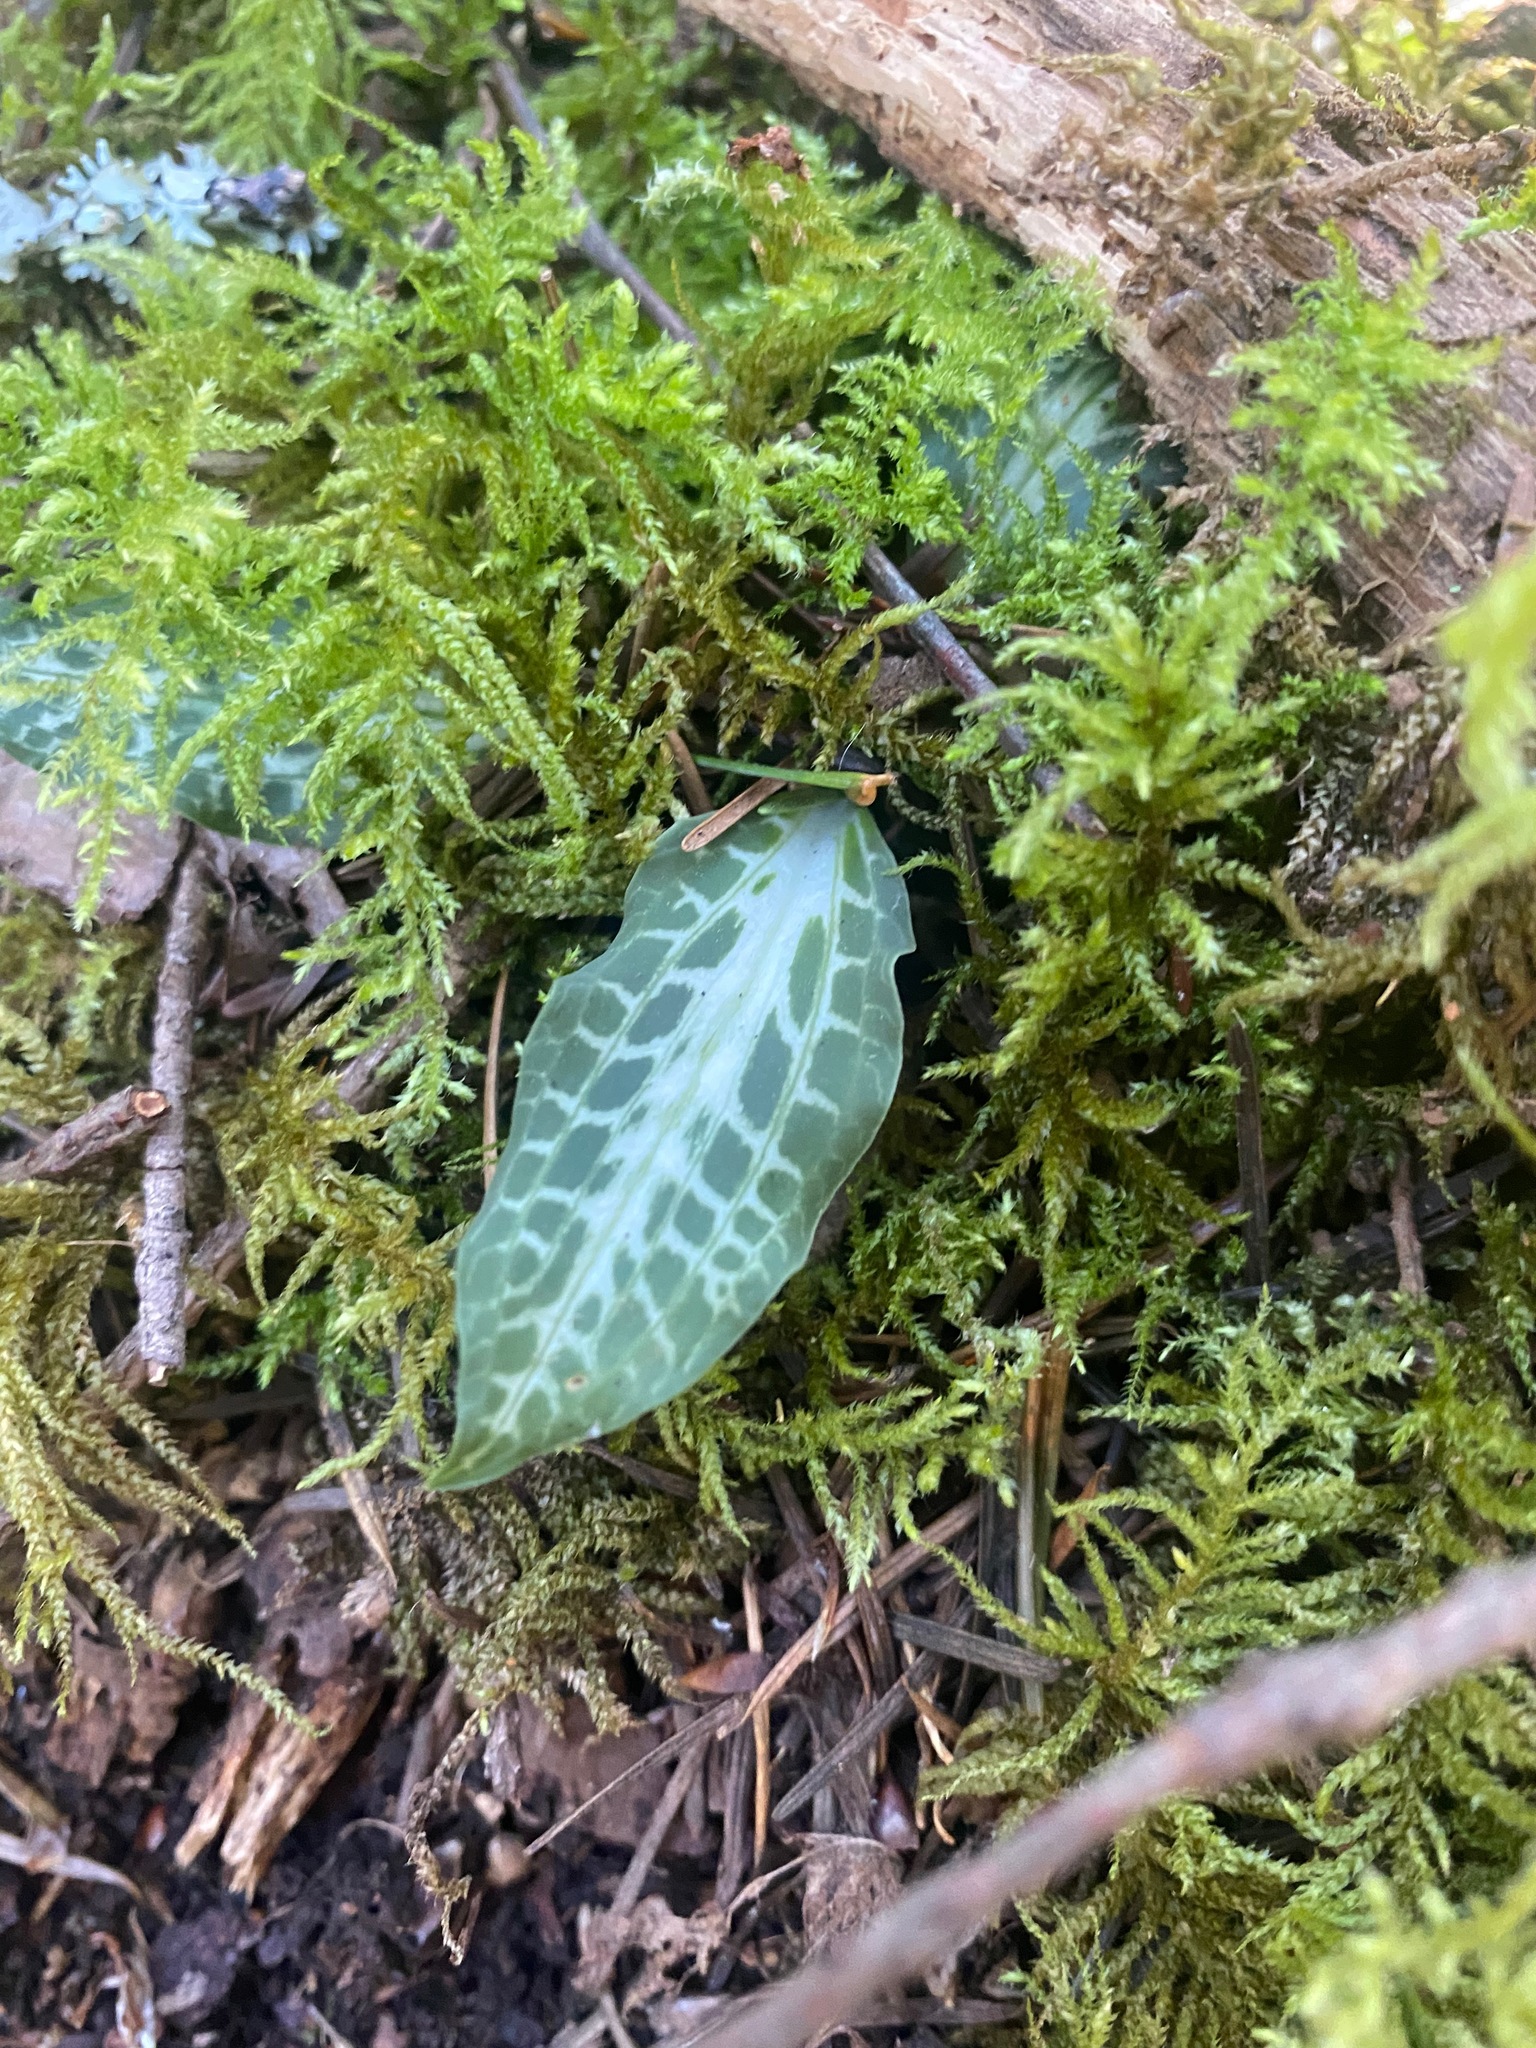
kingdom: Plantae
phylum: Tracheophyta
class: Liliopsida
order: Asparagales
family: Orchidaceae
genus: Goodyera
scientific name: Goodyera oblongifolia
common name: Giant rattlesnake-plantain
